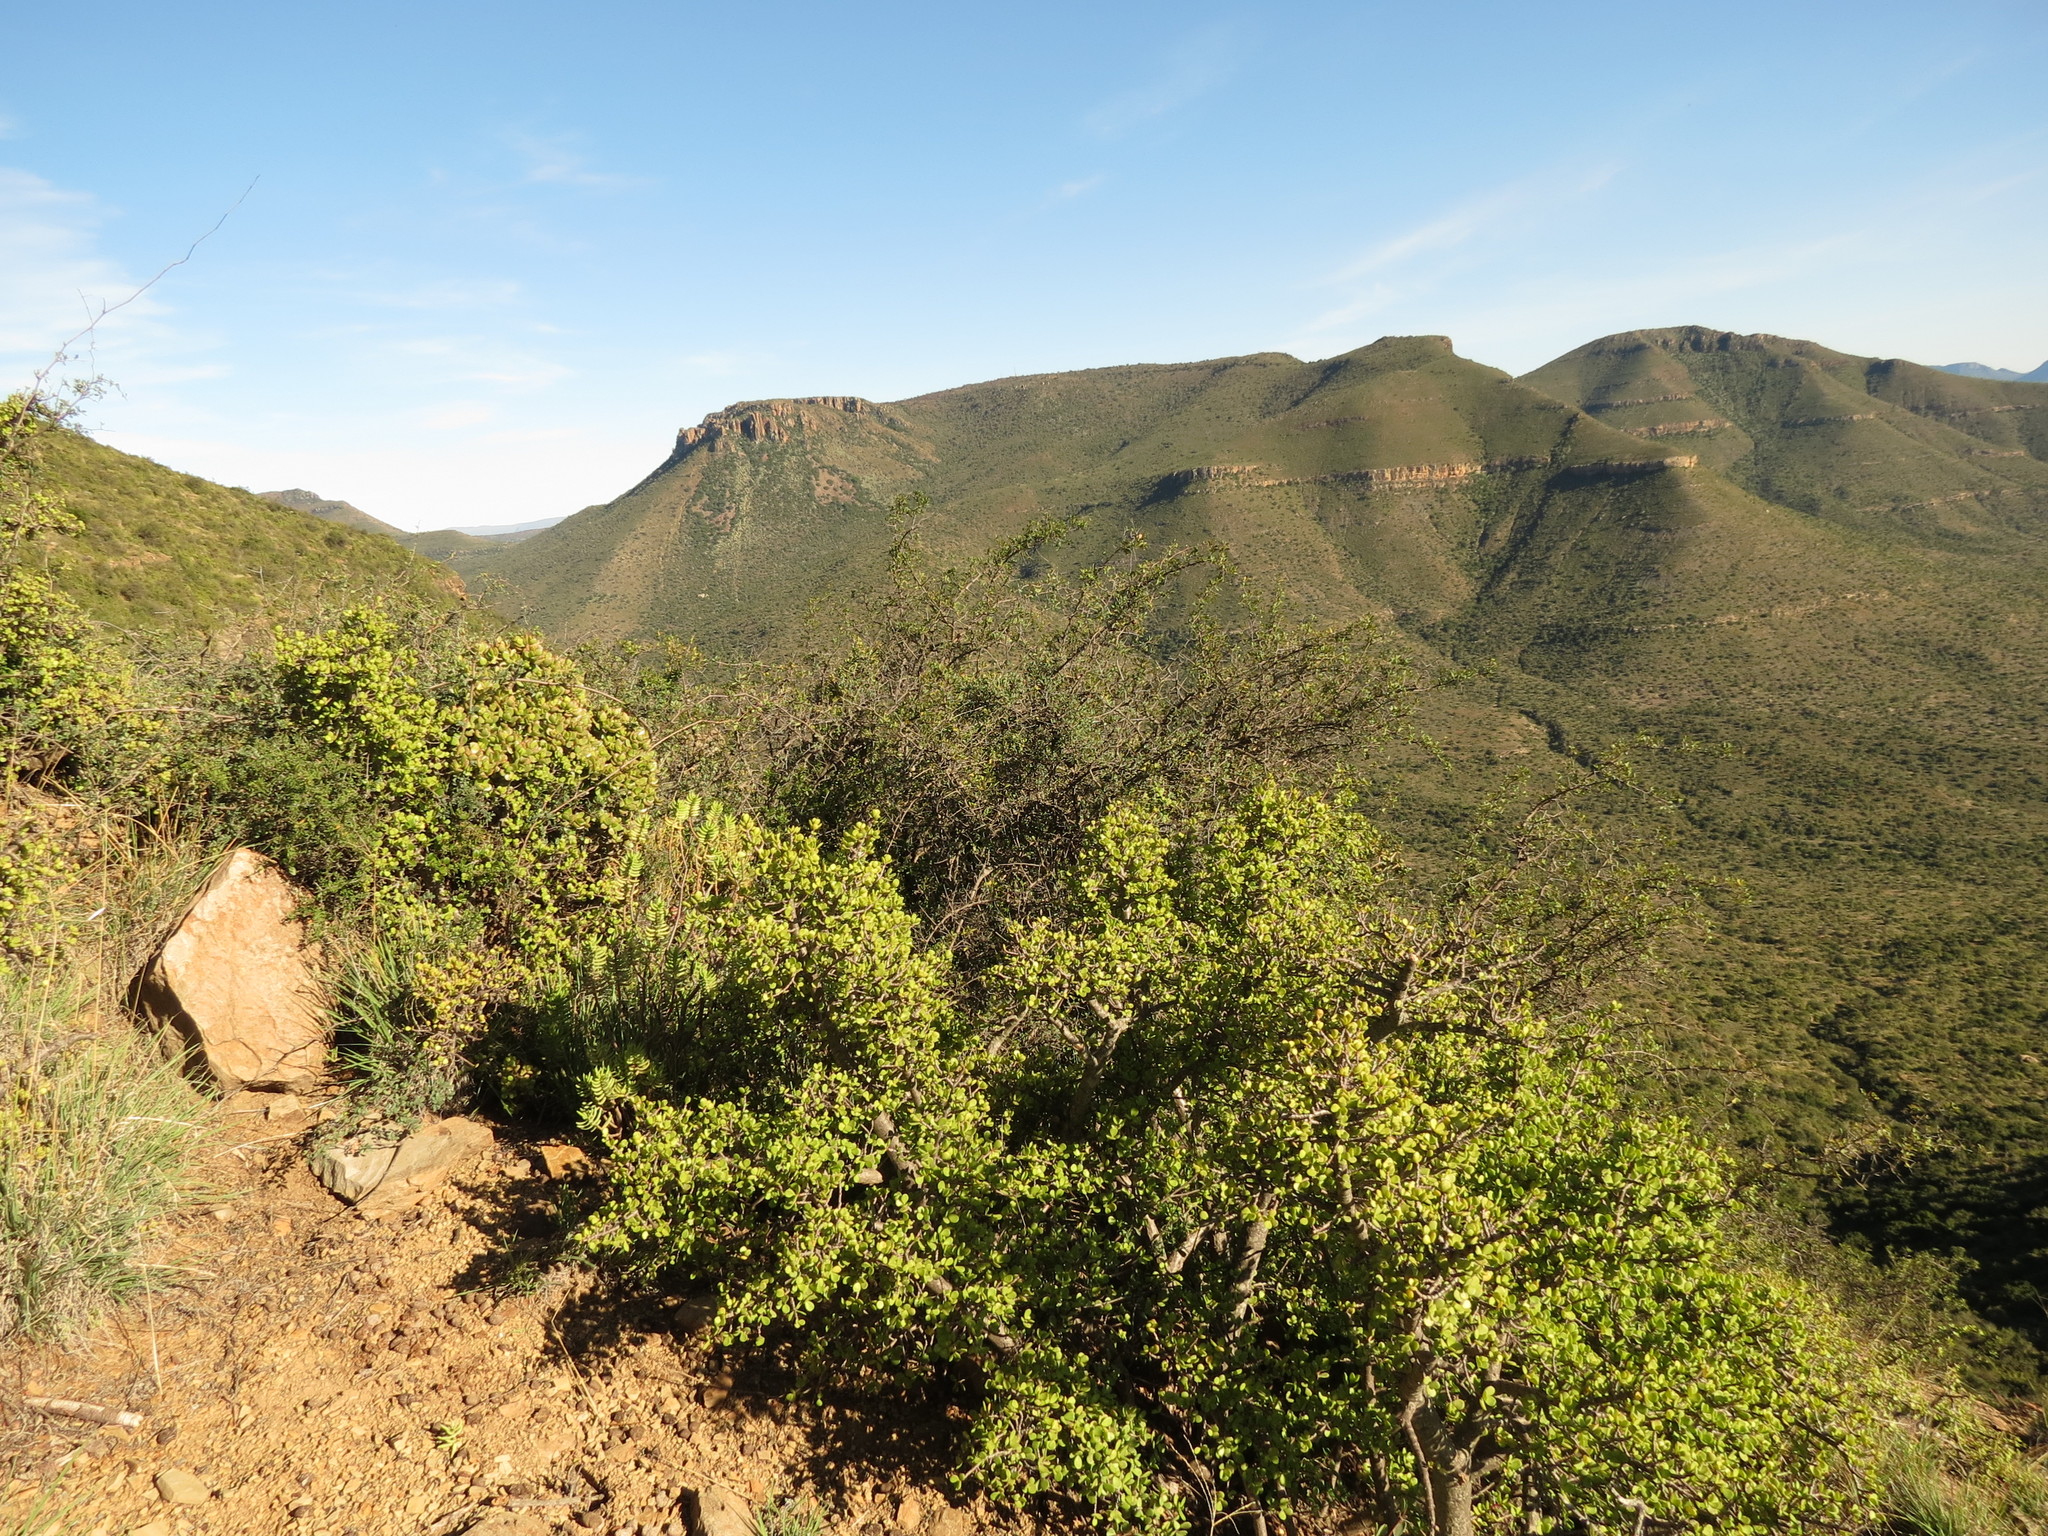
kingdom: Plantae
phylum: Tracheophyta
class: Magnoliopsida
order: Caryophyllales
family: Didiereaceae
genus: Portulacaria
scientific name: Portulacaria afra
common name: Elephant-bush
